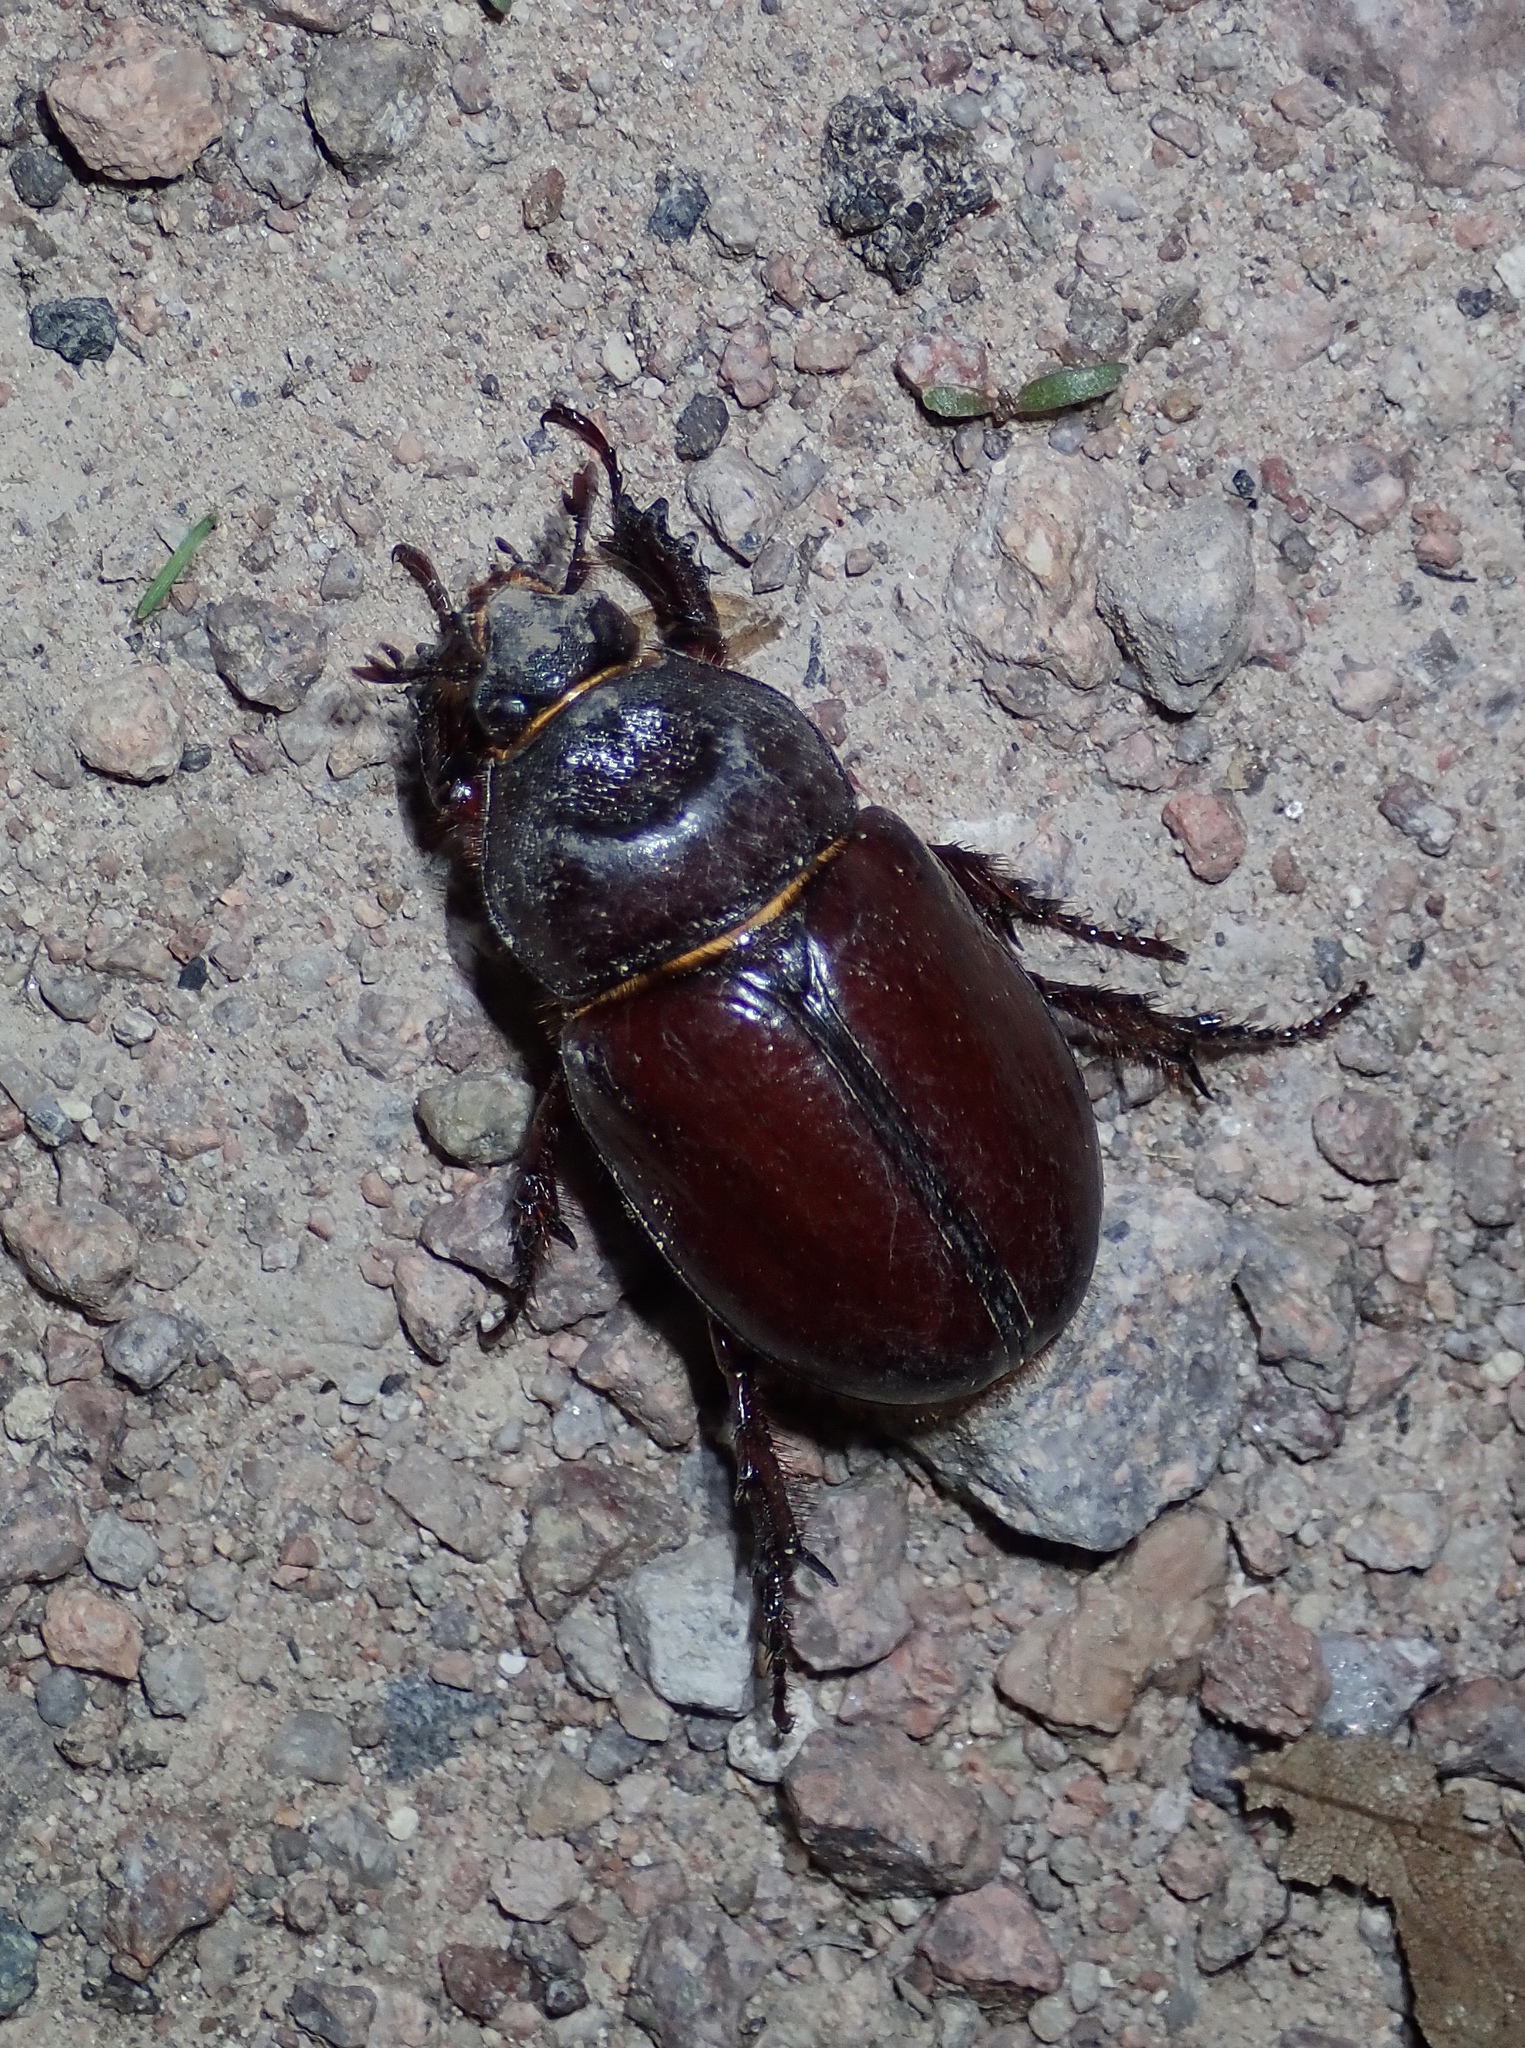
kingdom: Animalia
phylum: Arthropoda
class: Insecta
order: Coleoptera
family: Scarabaeidae
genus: Strategus
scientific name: Strategus aloeus
